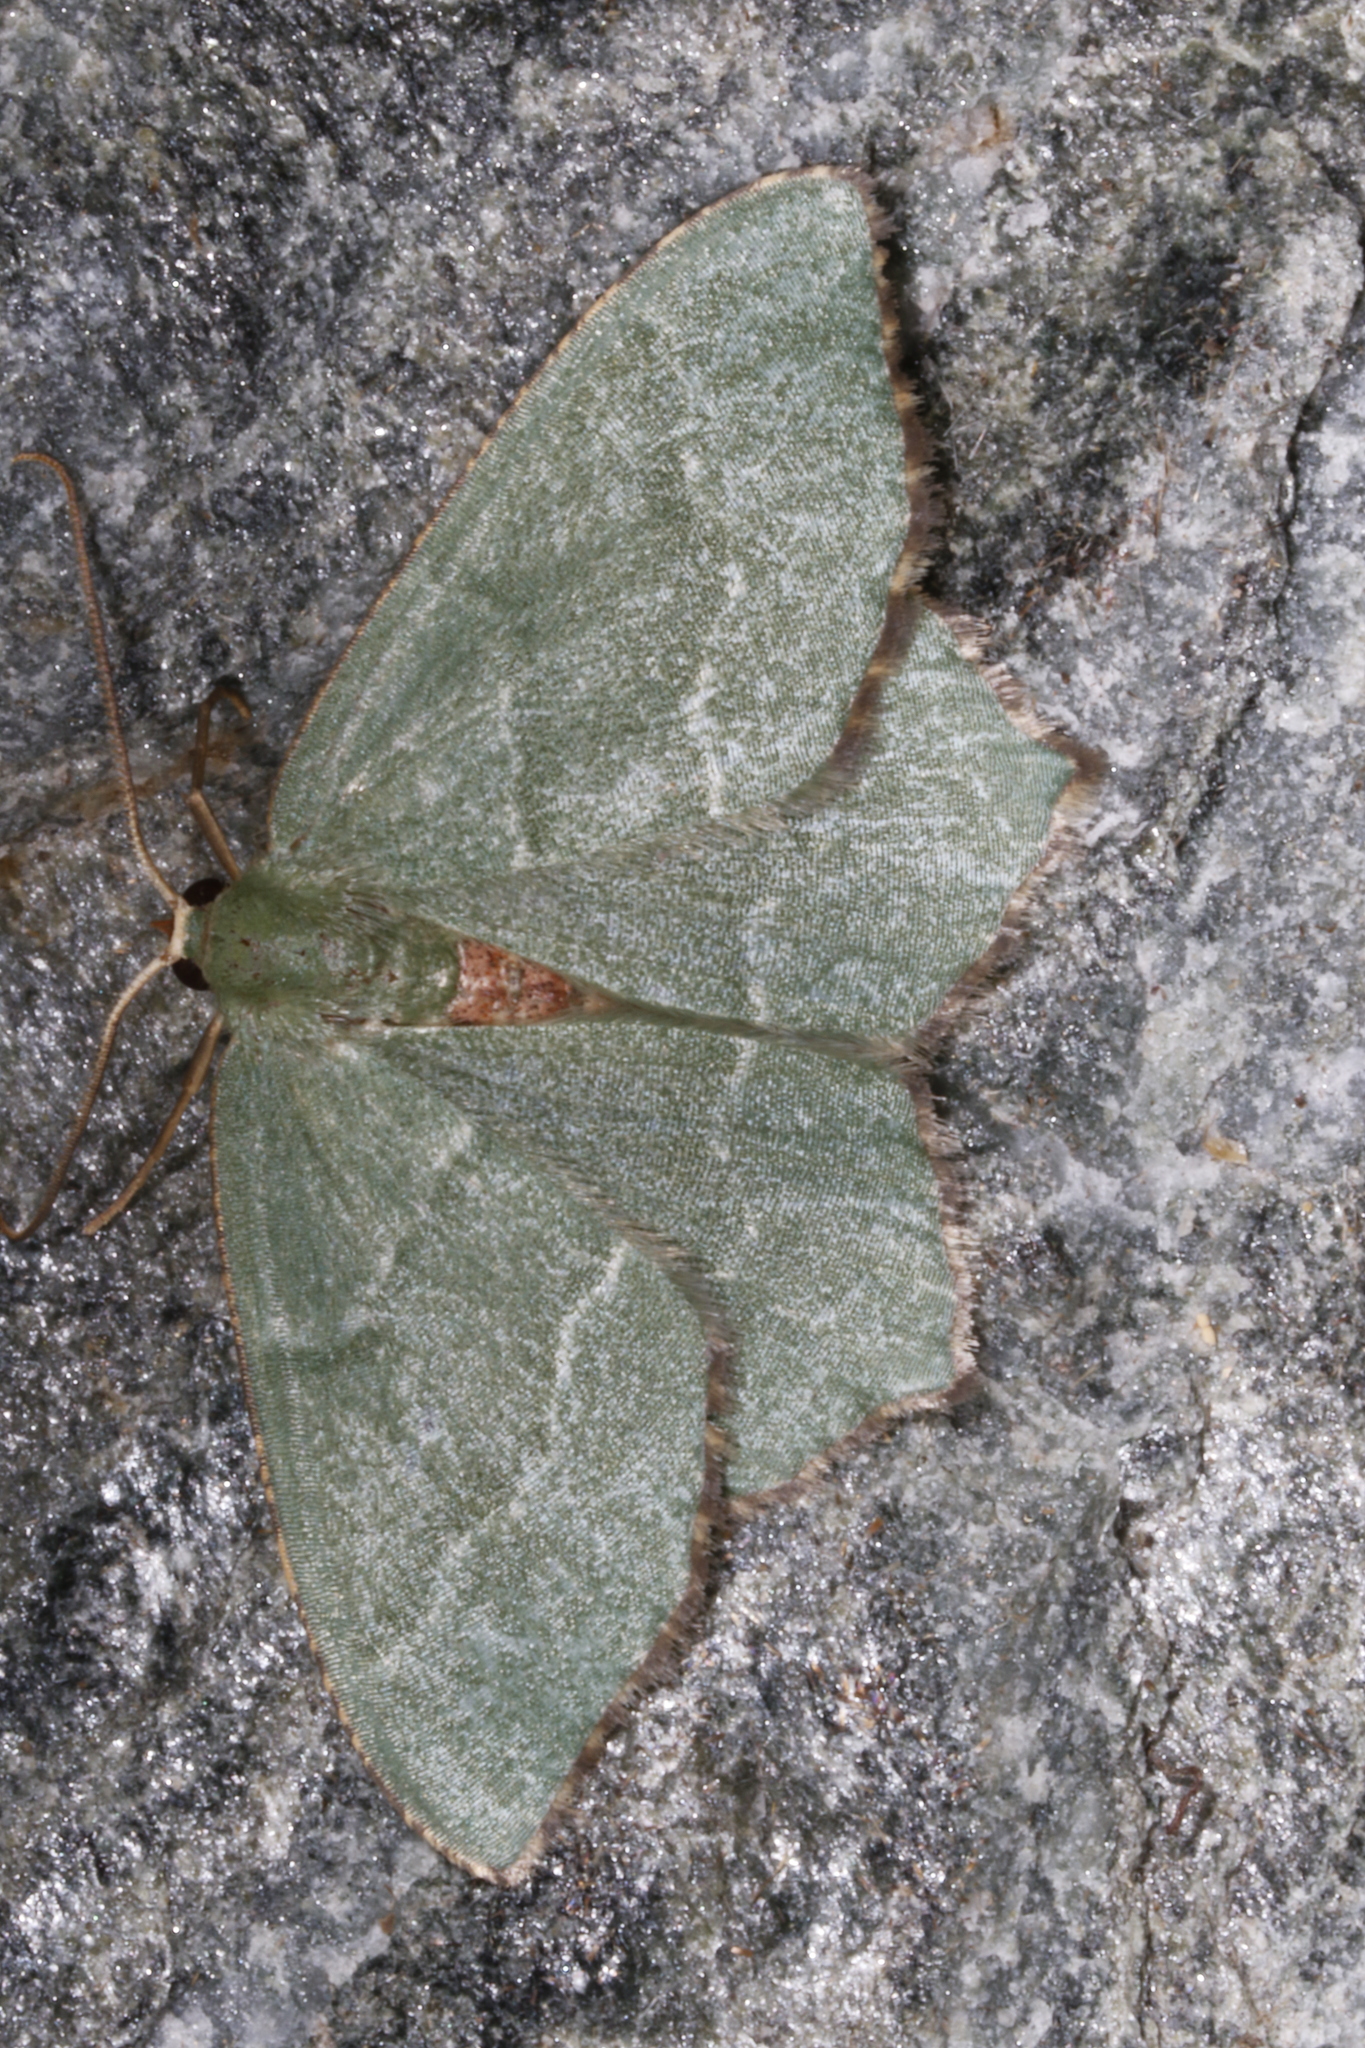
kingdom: Animalia
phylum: Arthropoda
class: Insecta
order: Lepidoptera
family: Geometridae
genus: Hemithea
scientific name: Hemithea aestivaria
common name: Common emerald
